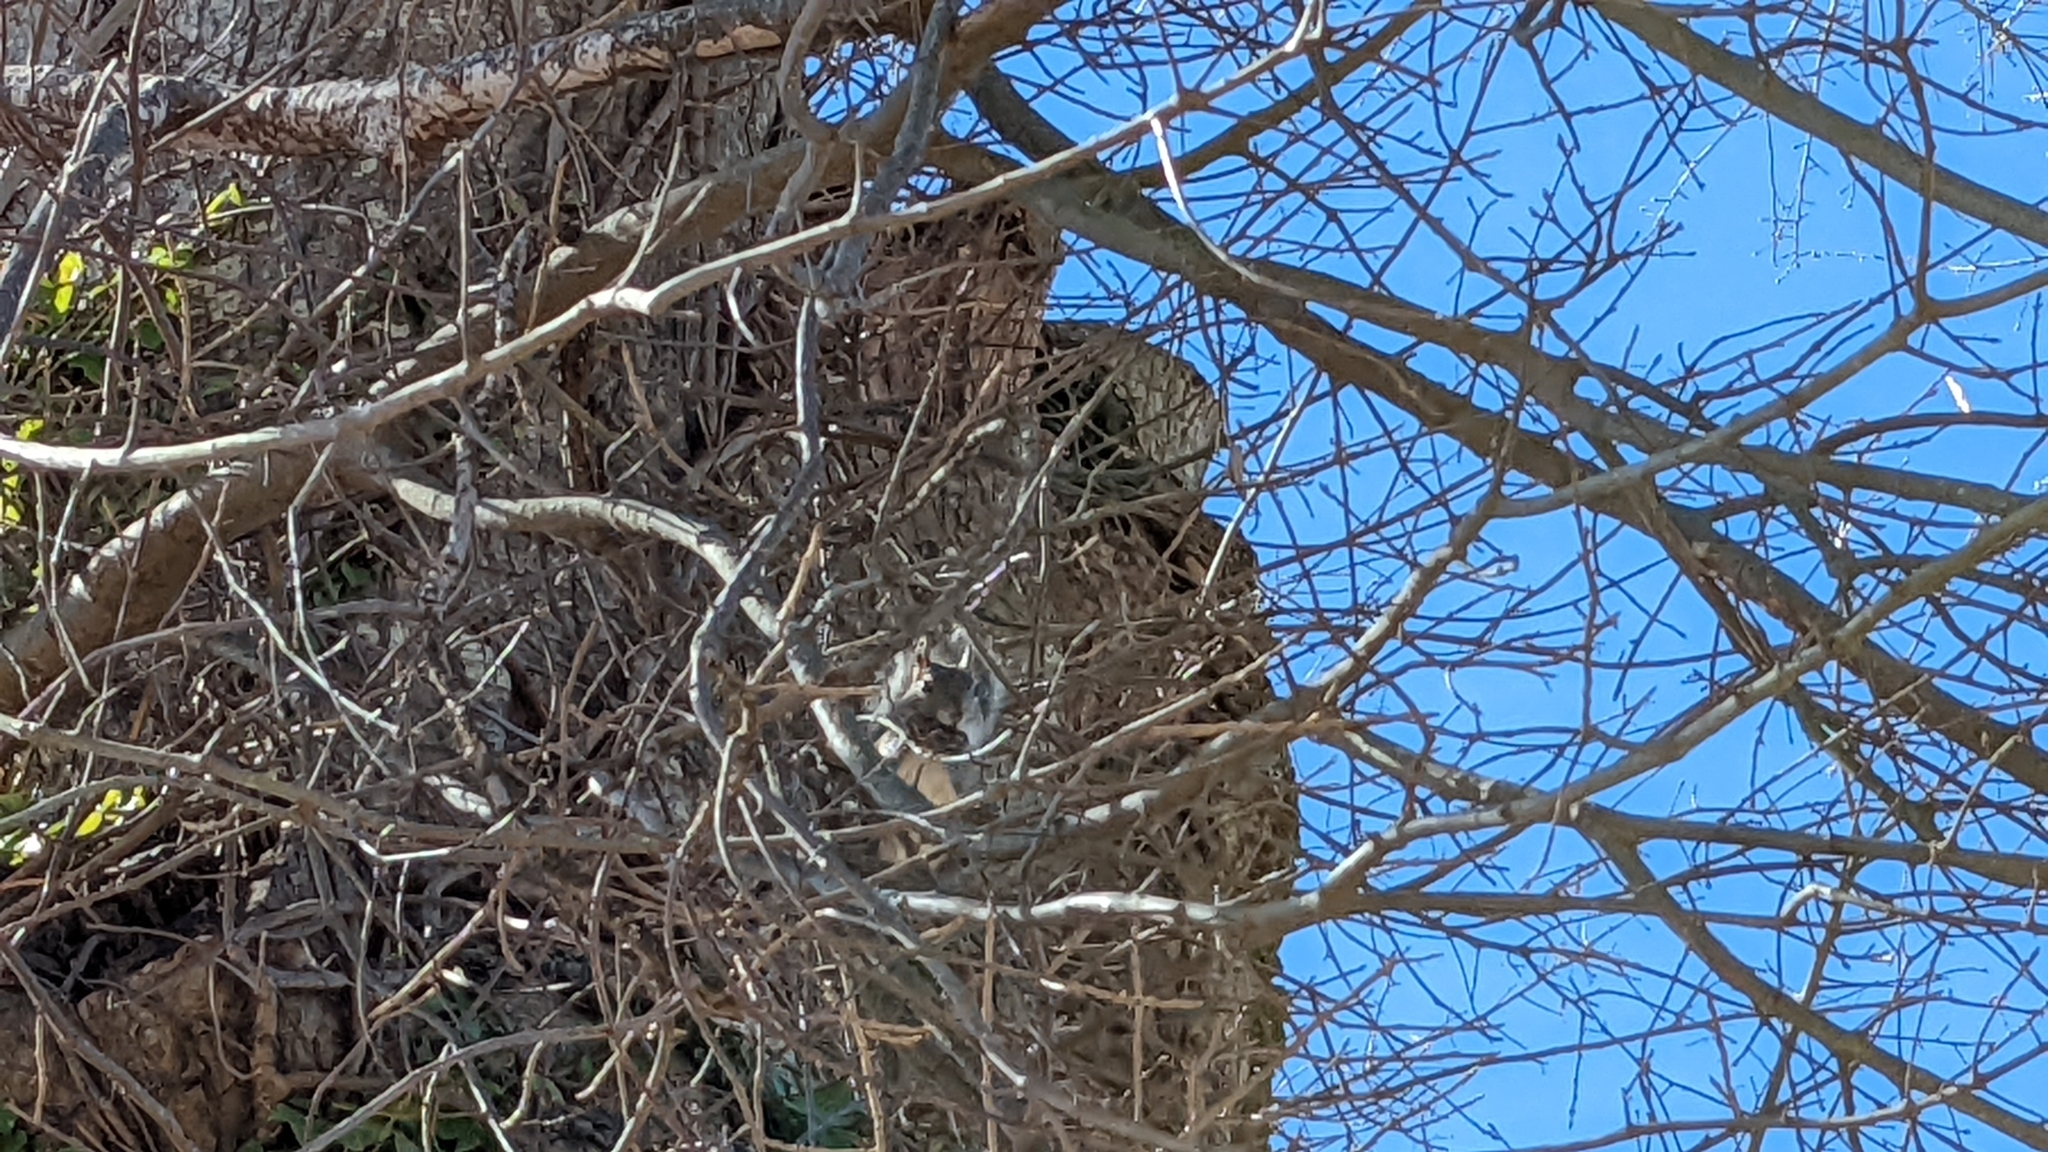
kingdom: Animalia
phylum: Chordata
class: Mammalia
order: Rodentia
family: Sciuridae
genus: Sciurus
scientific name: Sciurus carolinensis
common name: Eastern gray squirrel
